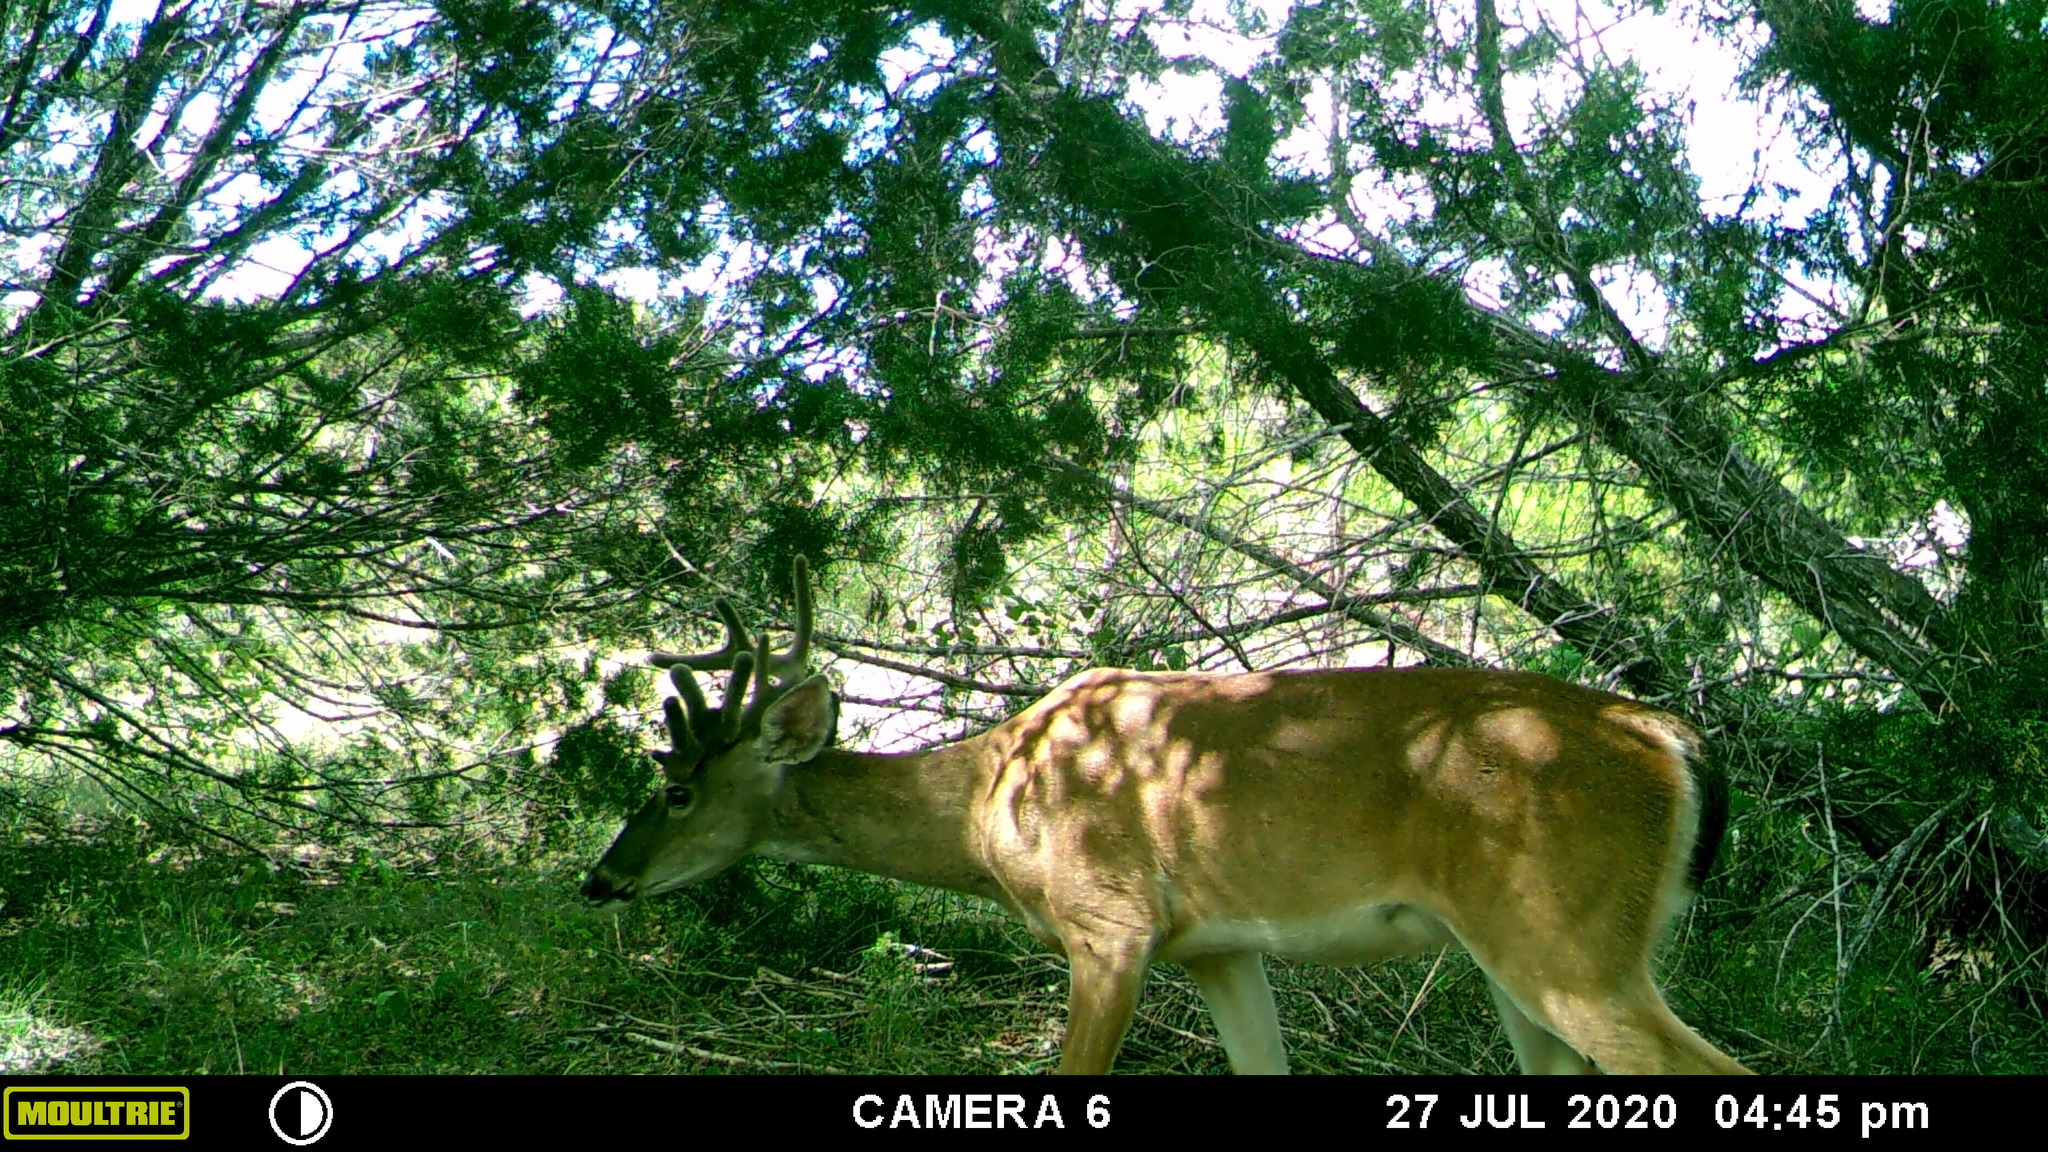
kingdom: Animalia
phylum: Chordata
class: Mammalia
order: Artiodactyla
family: Cervidae
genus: Odocoileus
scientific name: Odocoileus virginianus
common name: White-tailed deer
